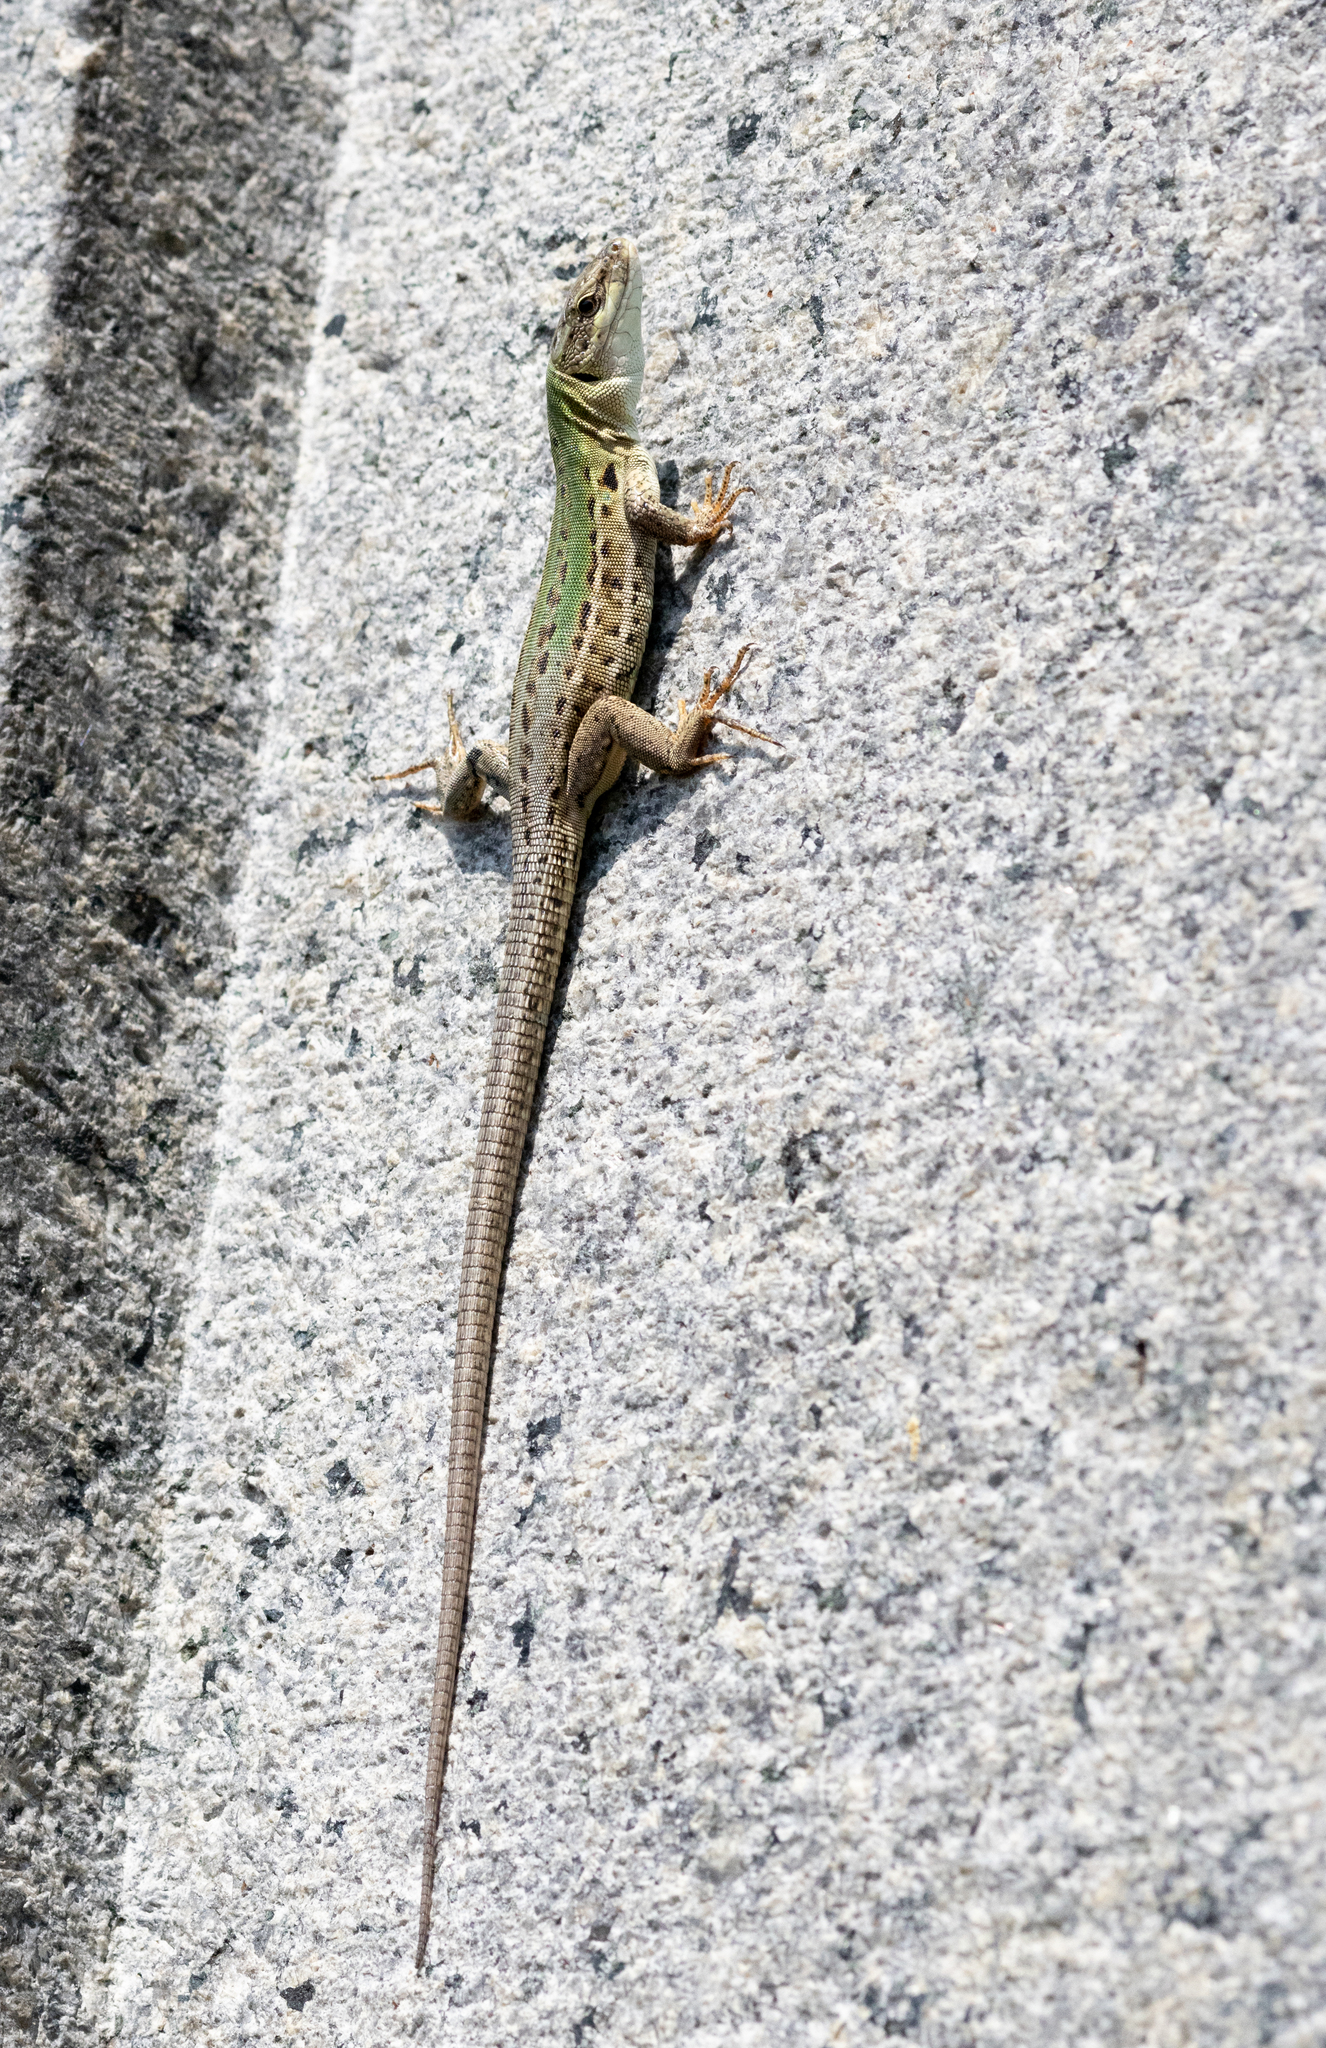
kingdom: Animalia
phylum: Chordata
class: Squamata
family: Lacertidae
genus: Podarcis
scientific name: Podarcis siculus
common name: Italian wall lizard
